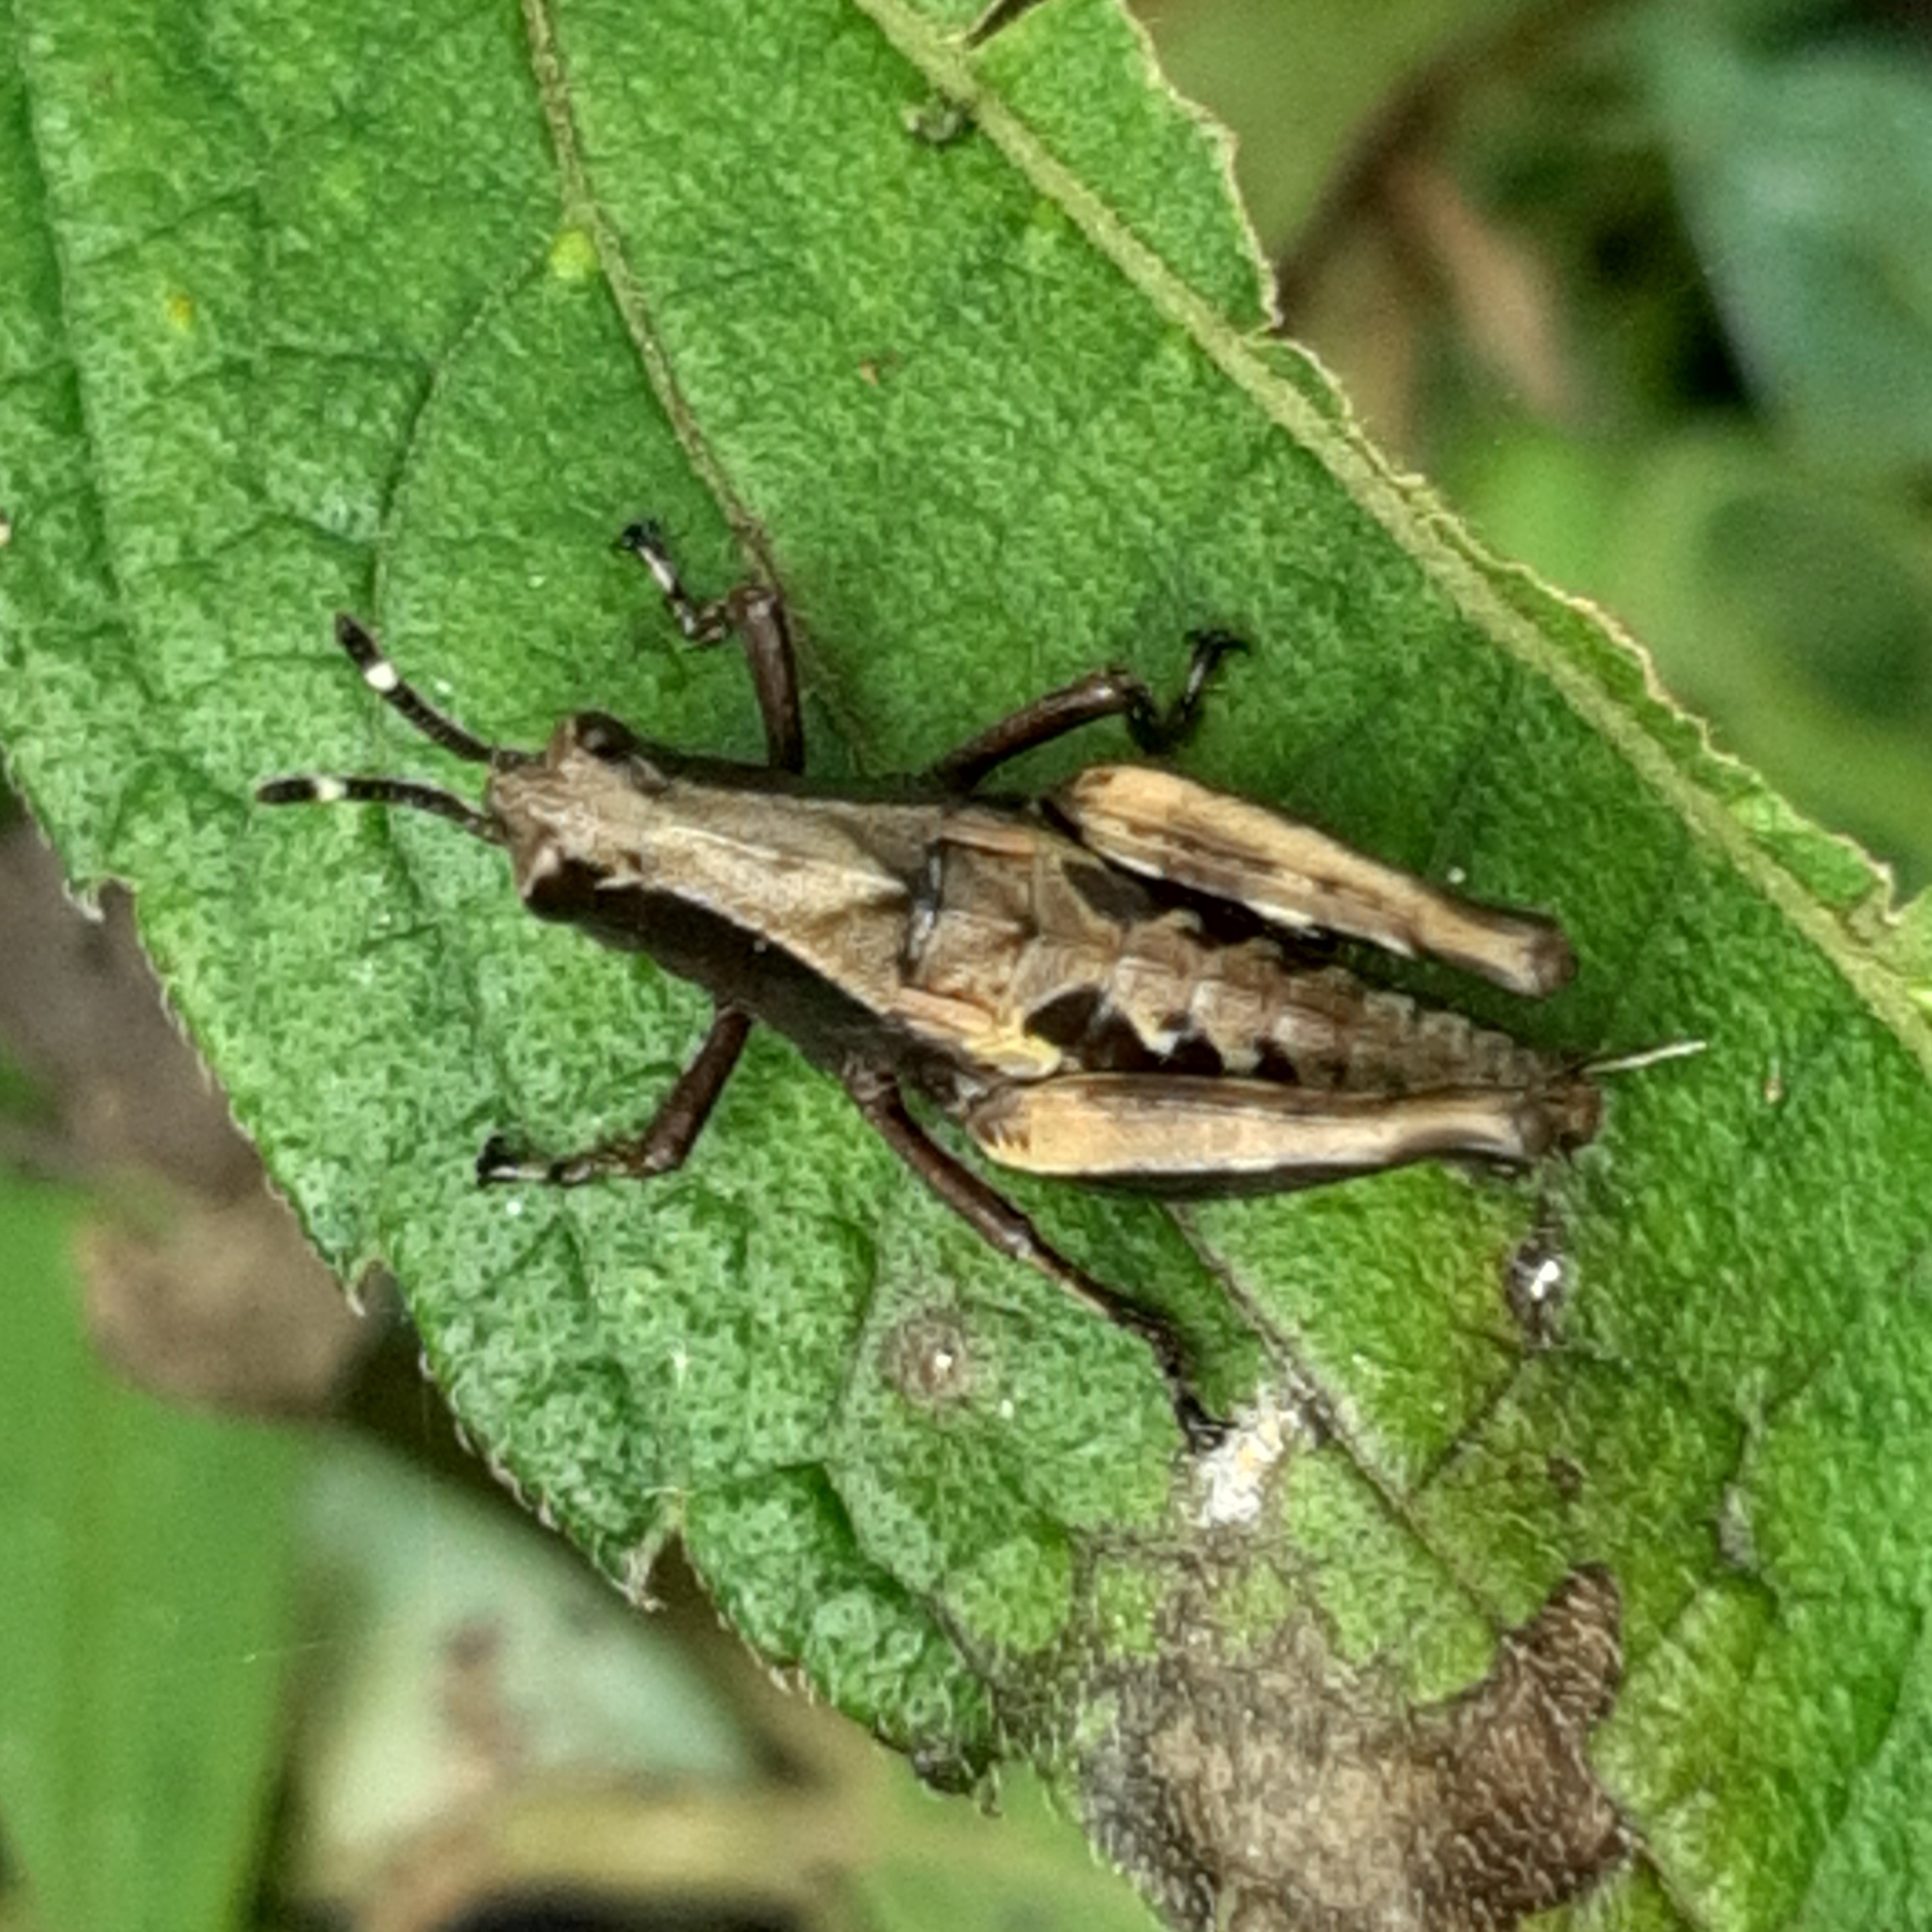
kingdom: Animalia
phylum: Arthropoda
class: Insecta
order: Orthoptera
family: Acrididae
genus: Microtylopteryx
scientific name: Microtylopteryx fusiformis
